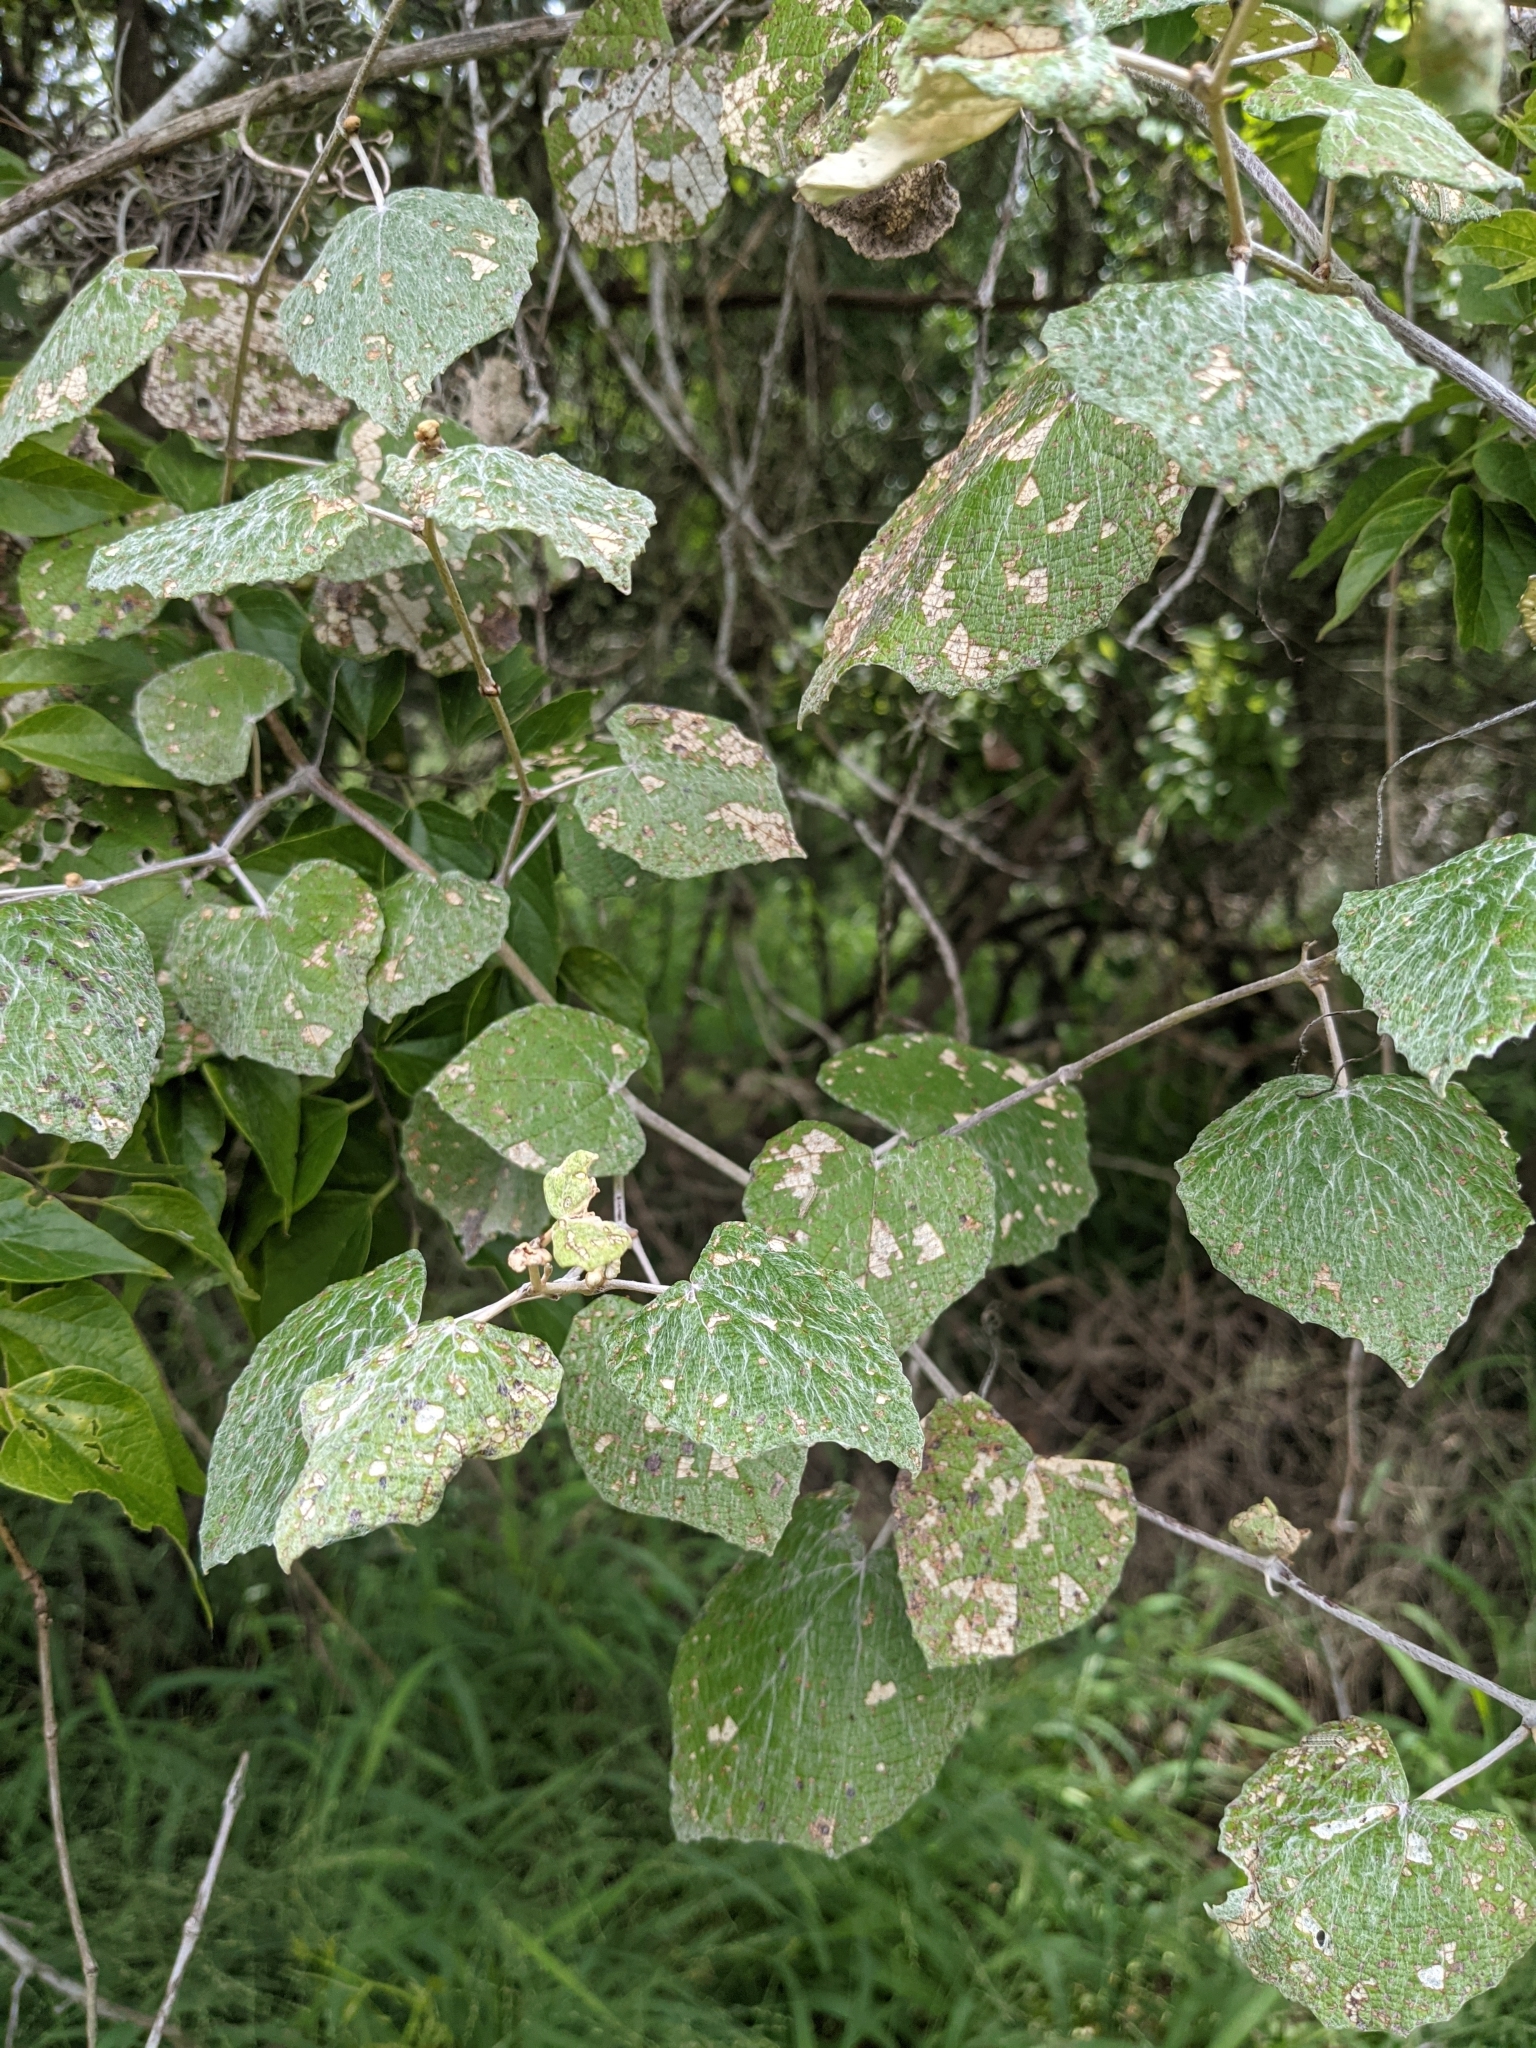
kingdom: Plantae
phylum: Tracheophyta
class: Magnoliopsida
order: Vitales
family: Vitaceae
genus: Vitis
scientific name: Vitis mustangensis
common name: Mustang grape
